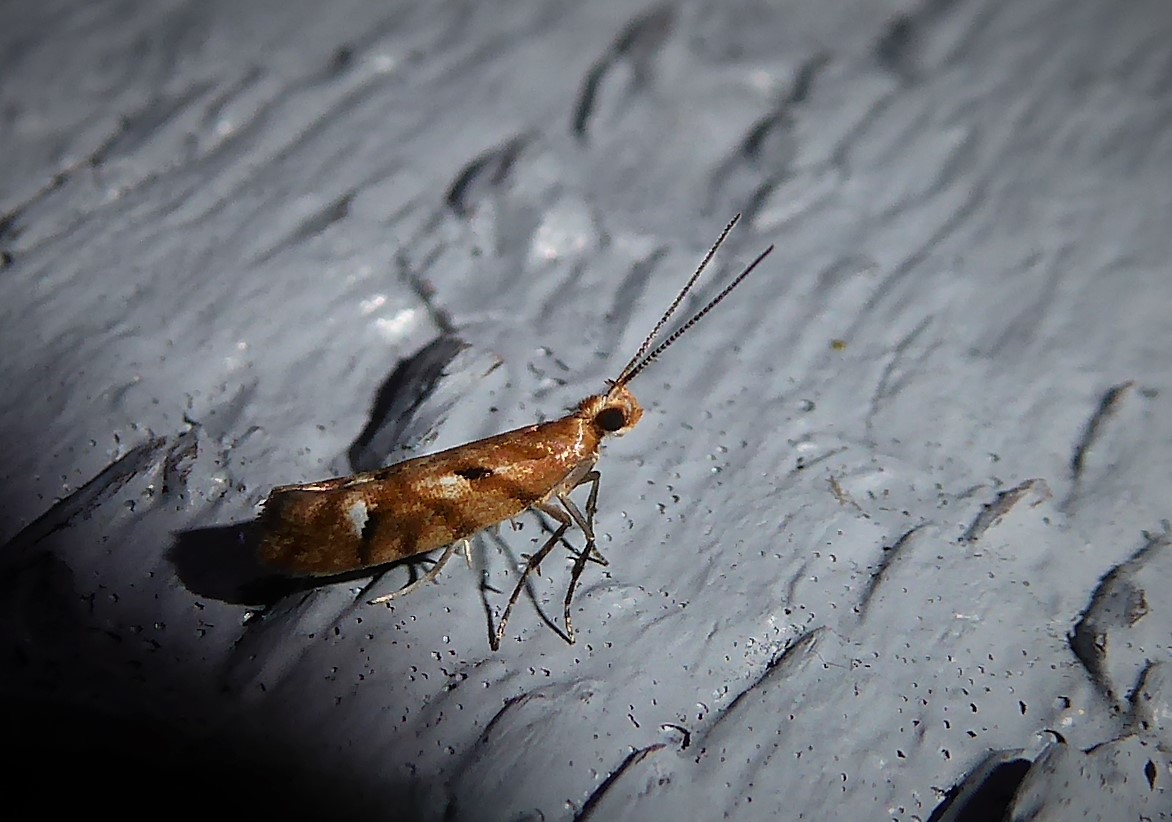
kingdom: Animalia
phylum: Arthropoda
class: Insecta
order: Lepidoptera
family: Glyphipterigidae
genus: Chrysorthenches
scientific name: Chrysorthenches virgata
